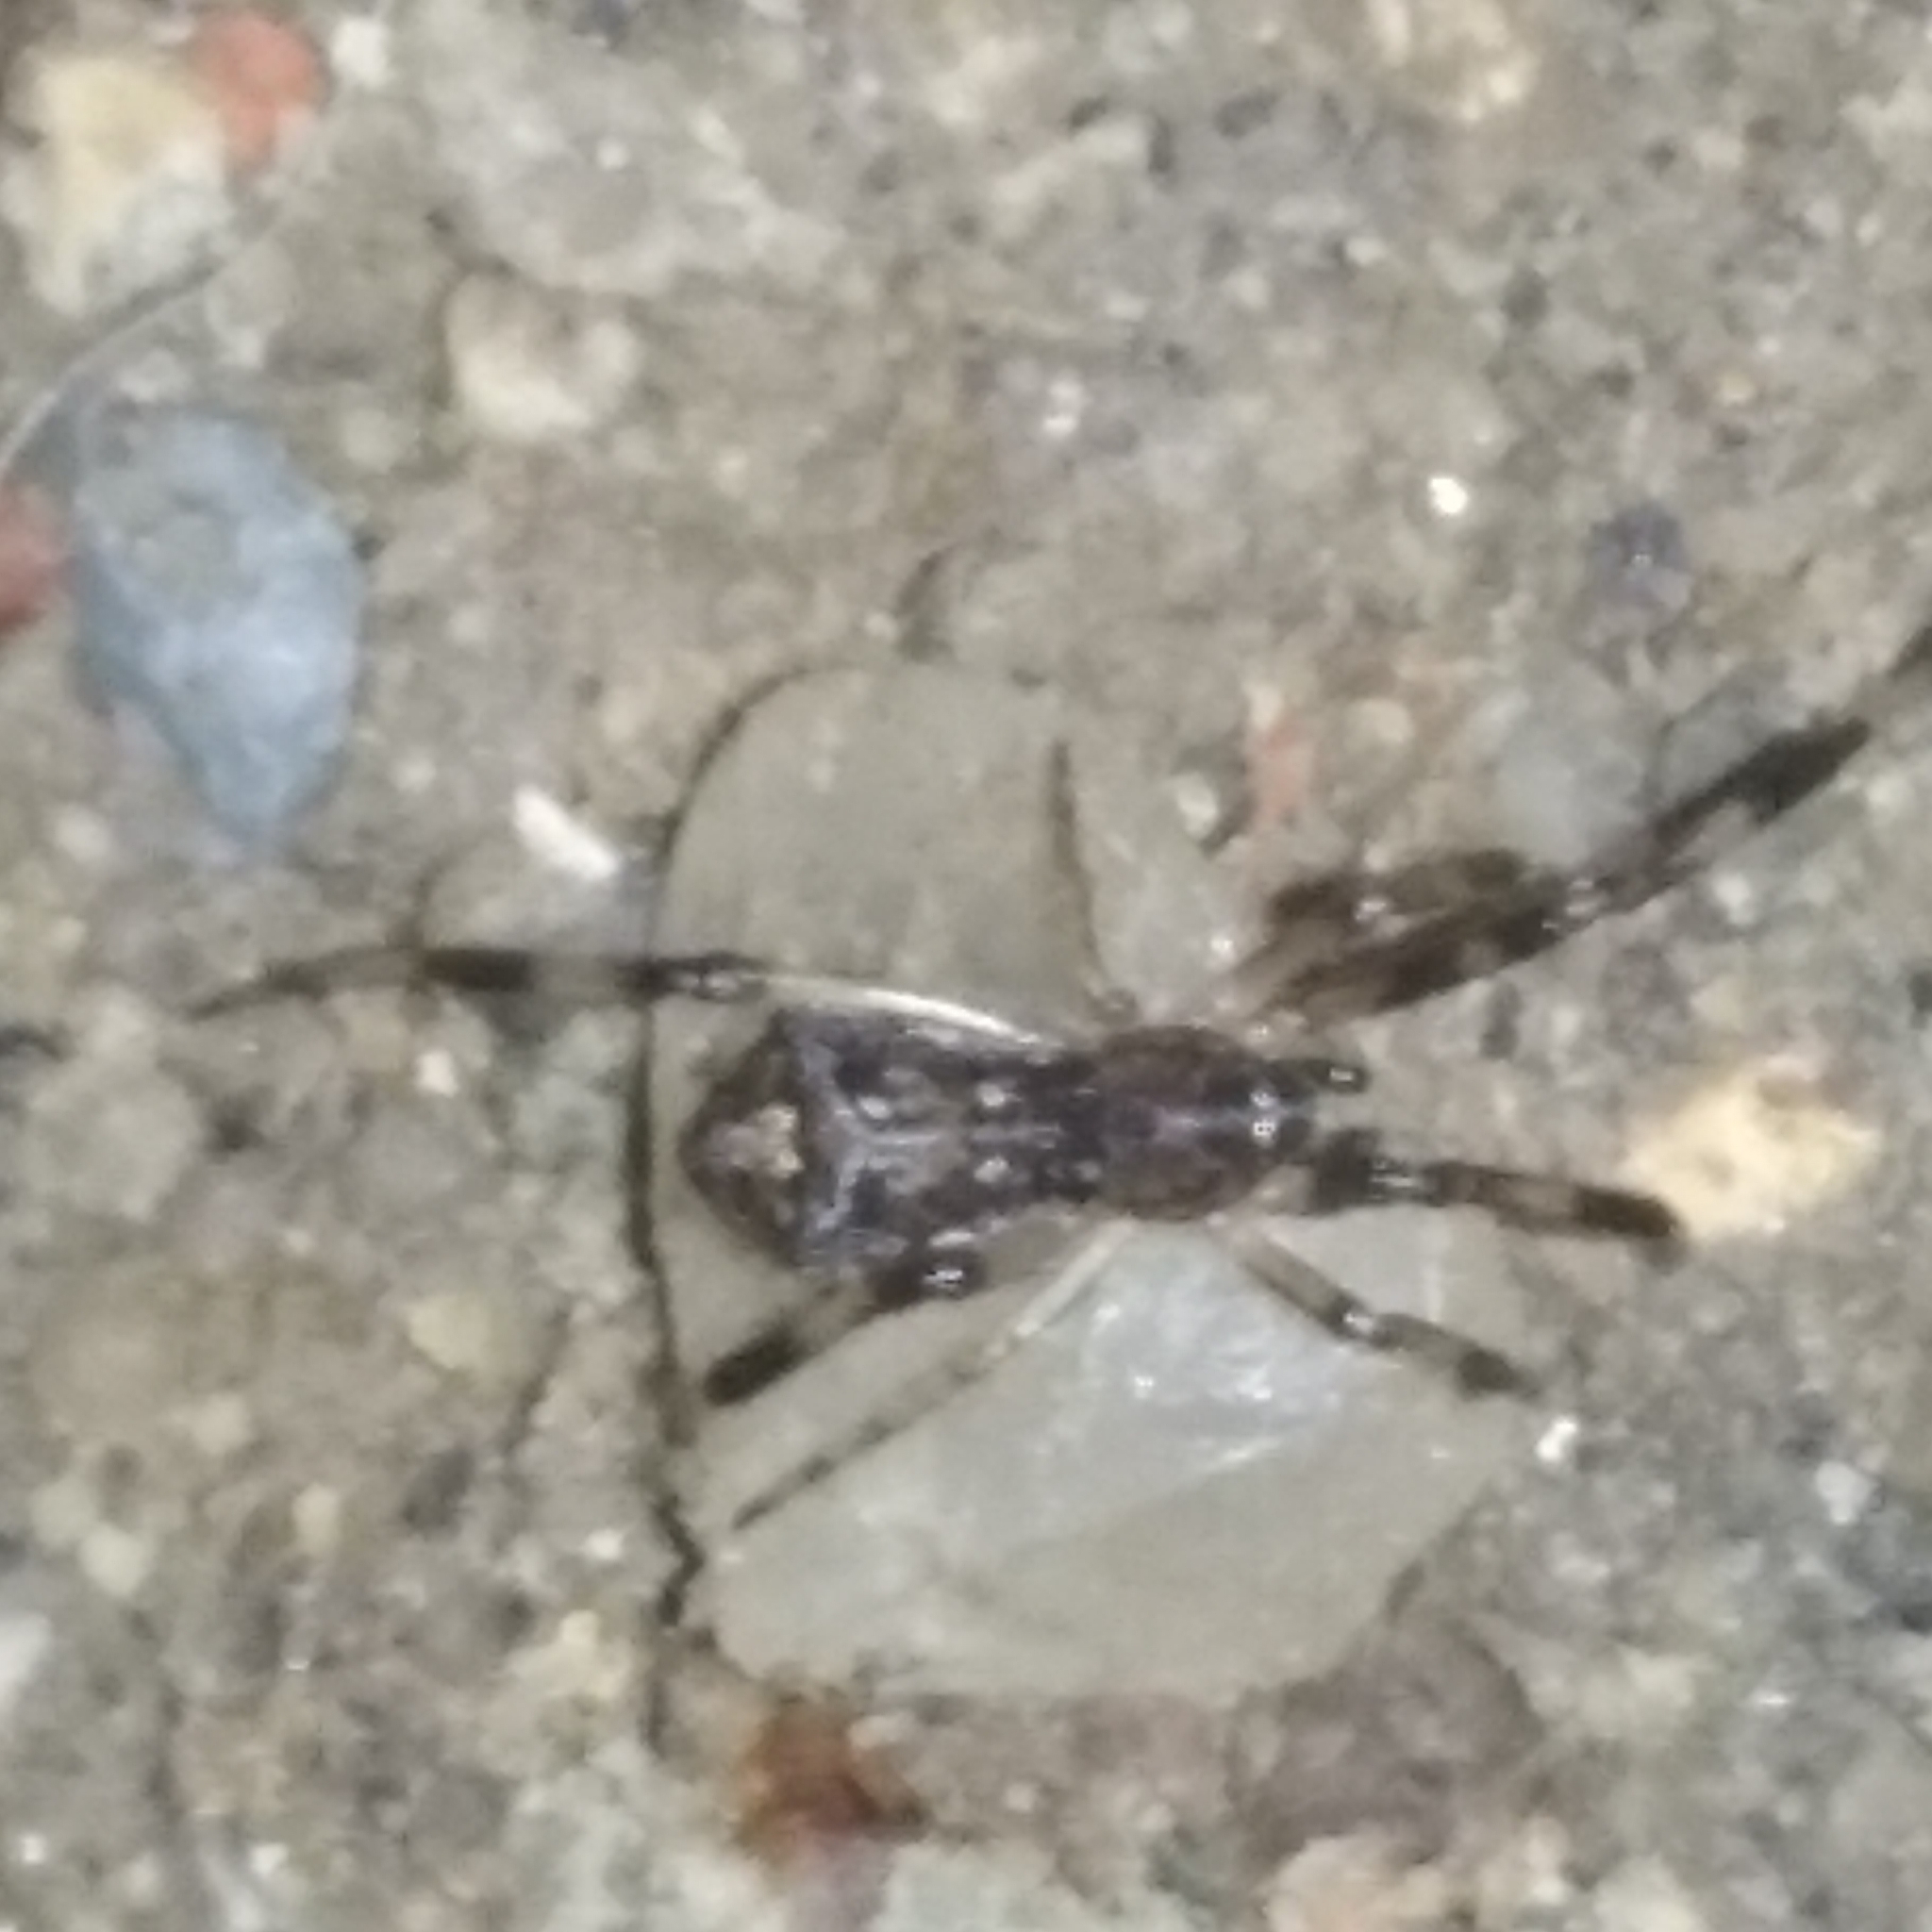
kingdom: Animalia
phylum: Arthropoda
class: Arachnida
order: Araneae
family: Theridiidae
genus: Episinus
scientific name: Episinus angulatus
